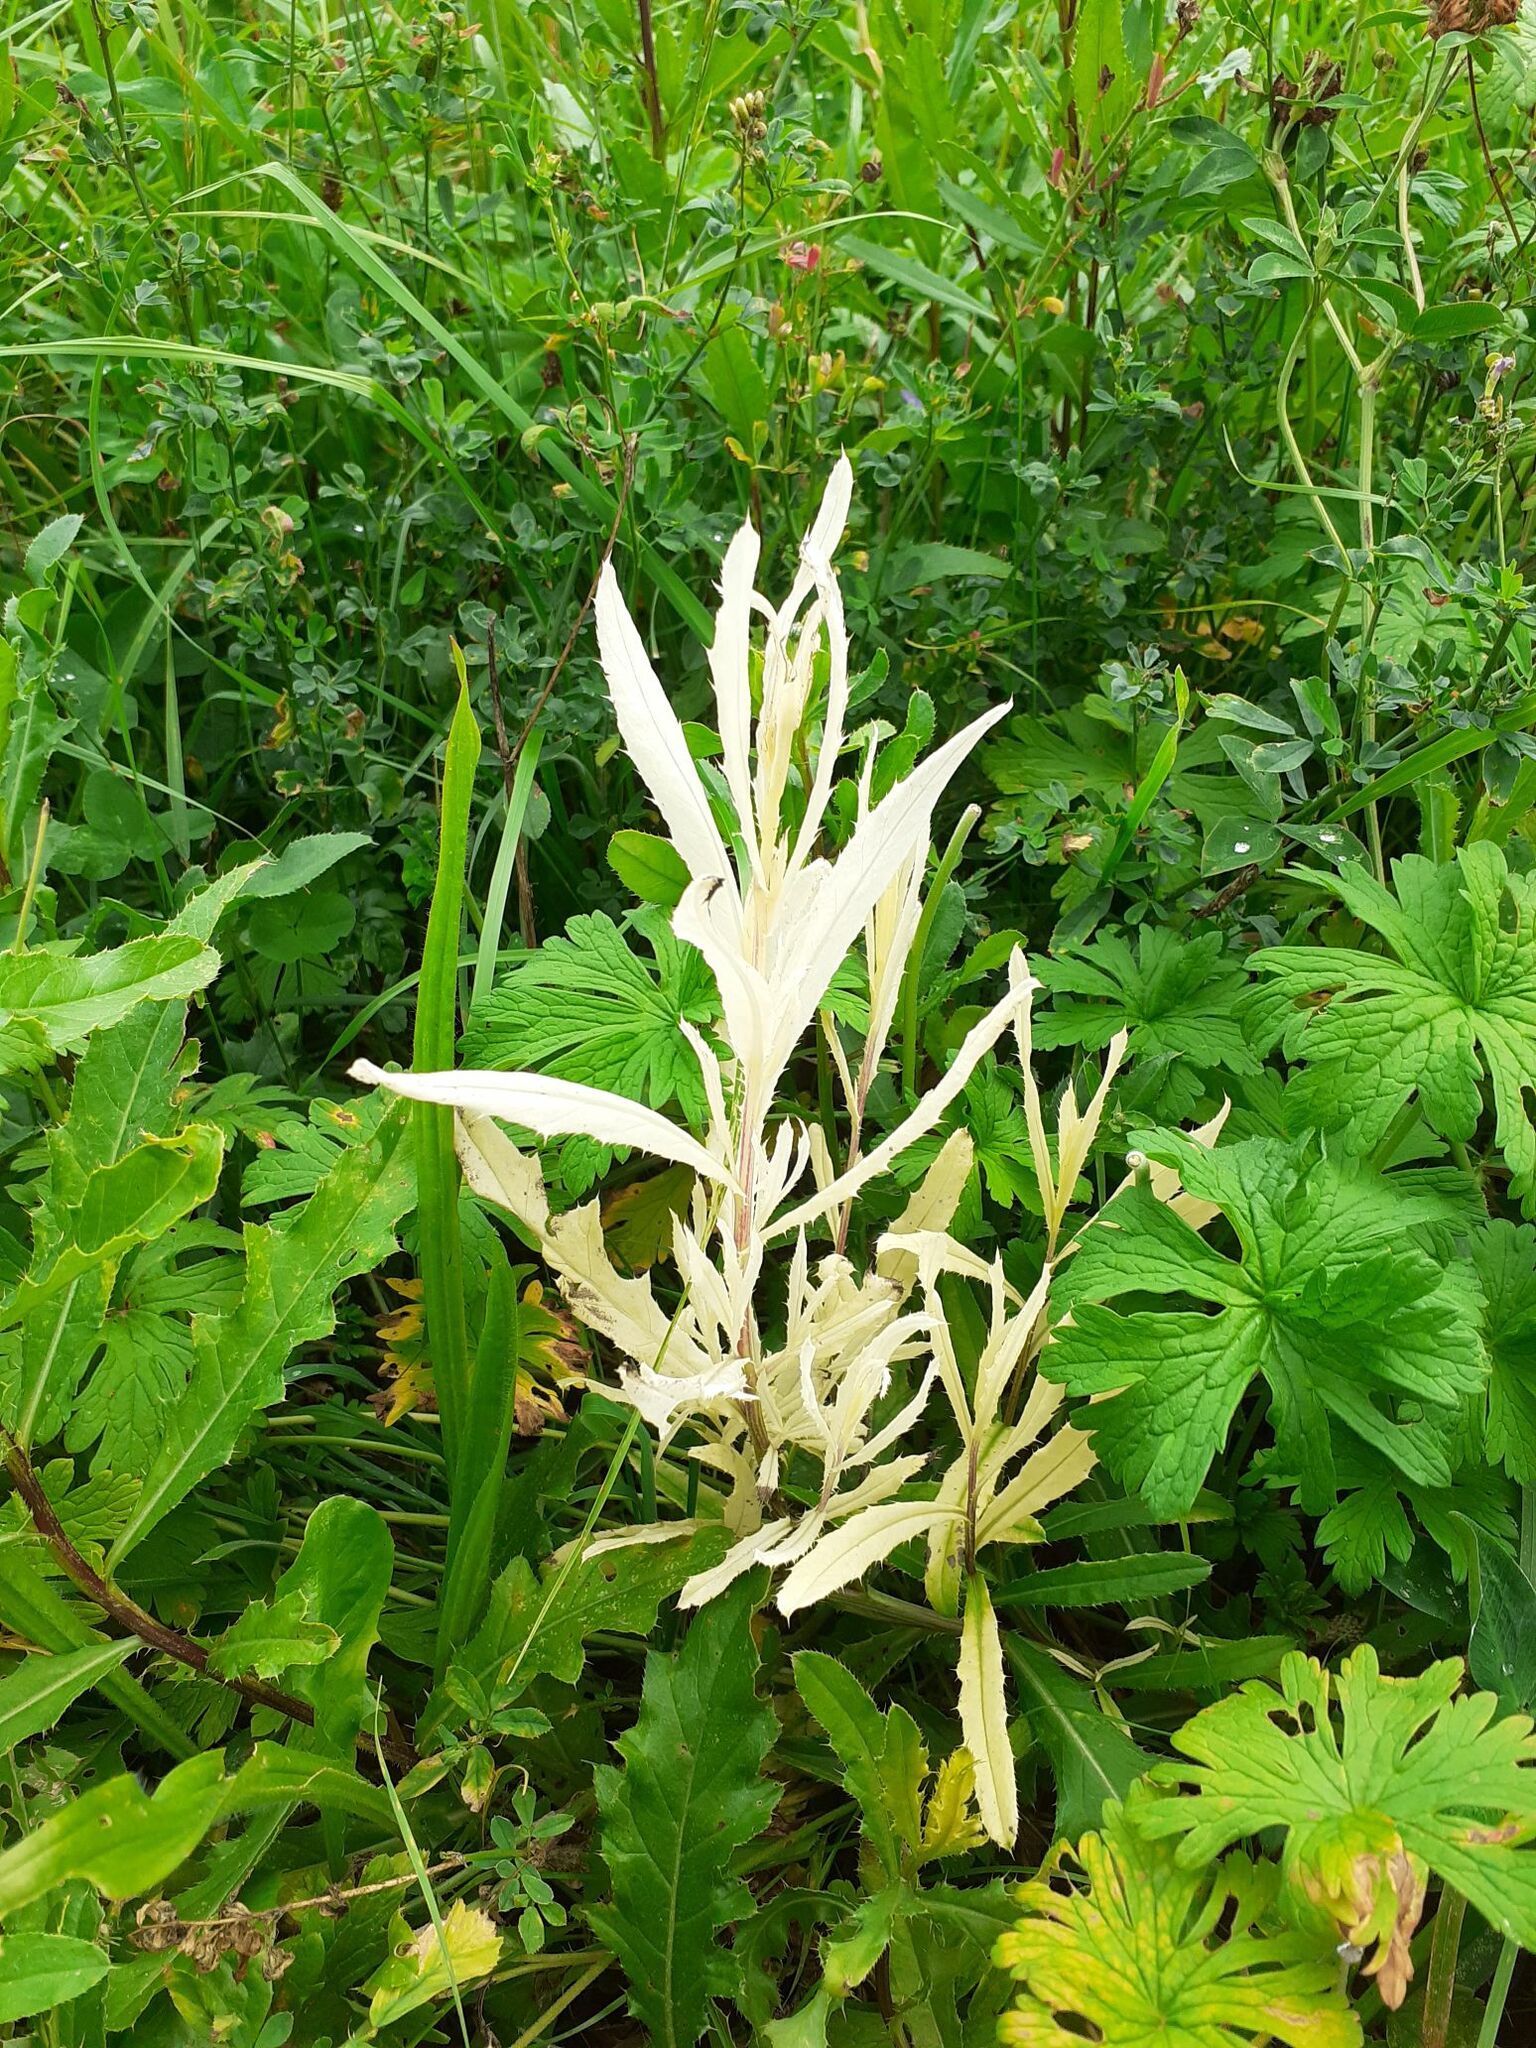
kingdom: Bacteria
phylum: Proteobacteria
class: Gammaproteobacteria
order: Pseudomonadales
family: Pseudomonadaceae
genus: Pseudomonas
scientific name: Pseudomonas syringae
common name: Bacterial speck
